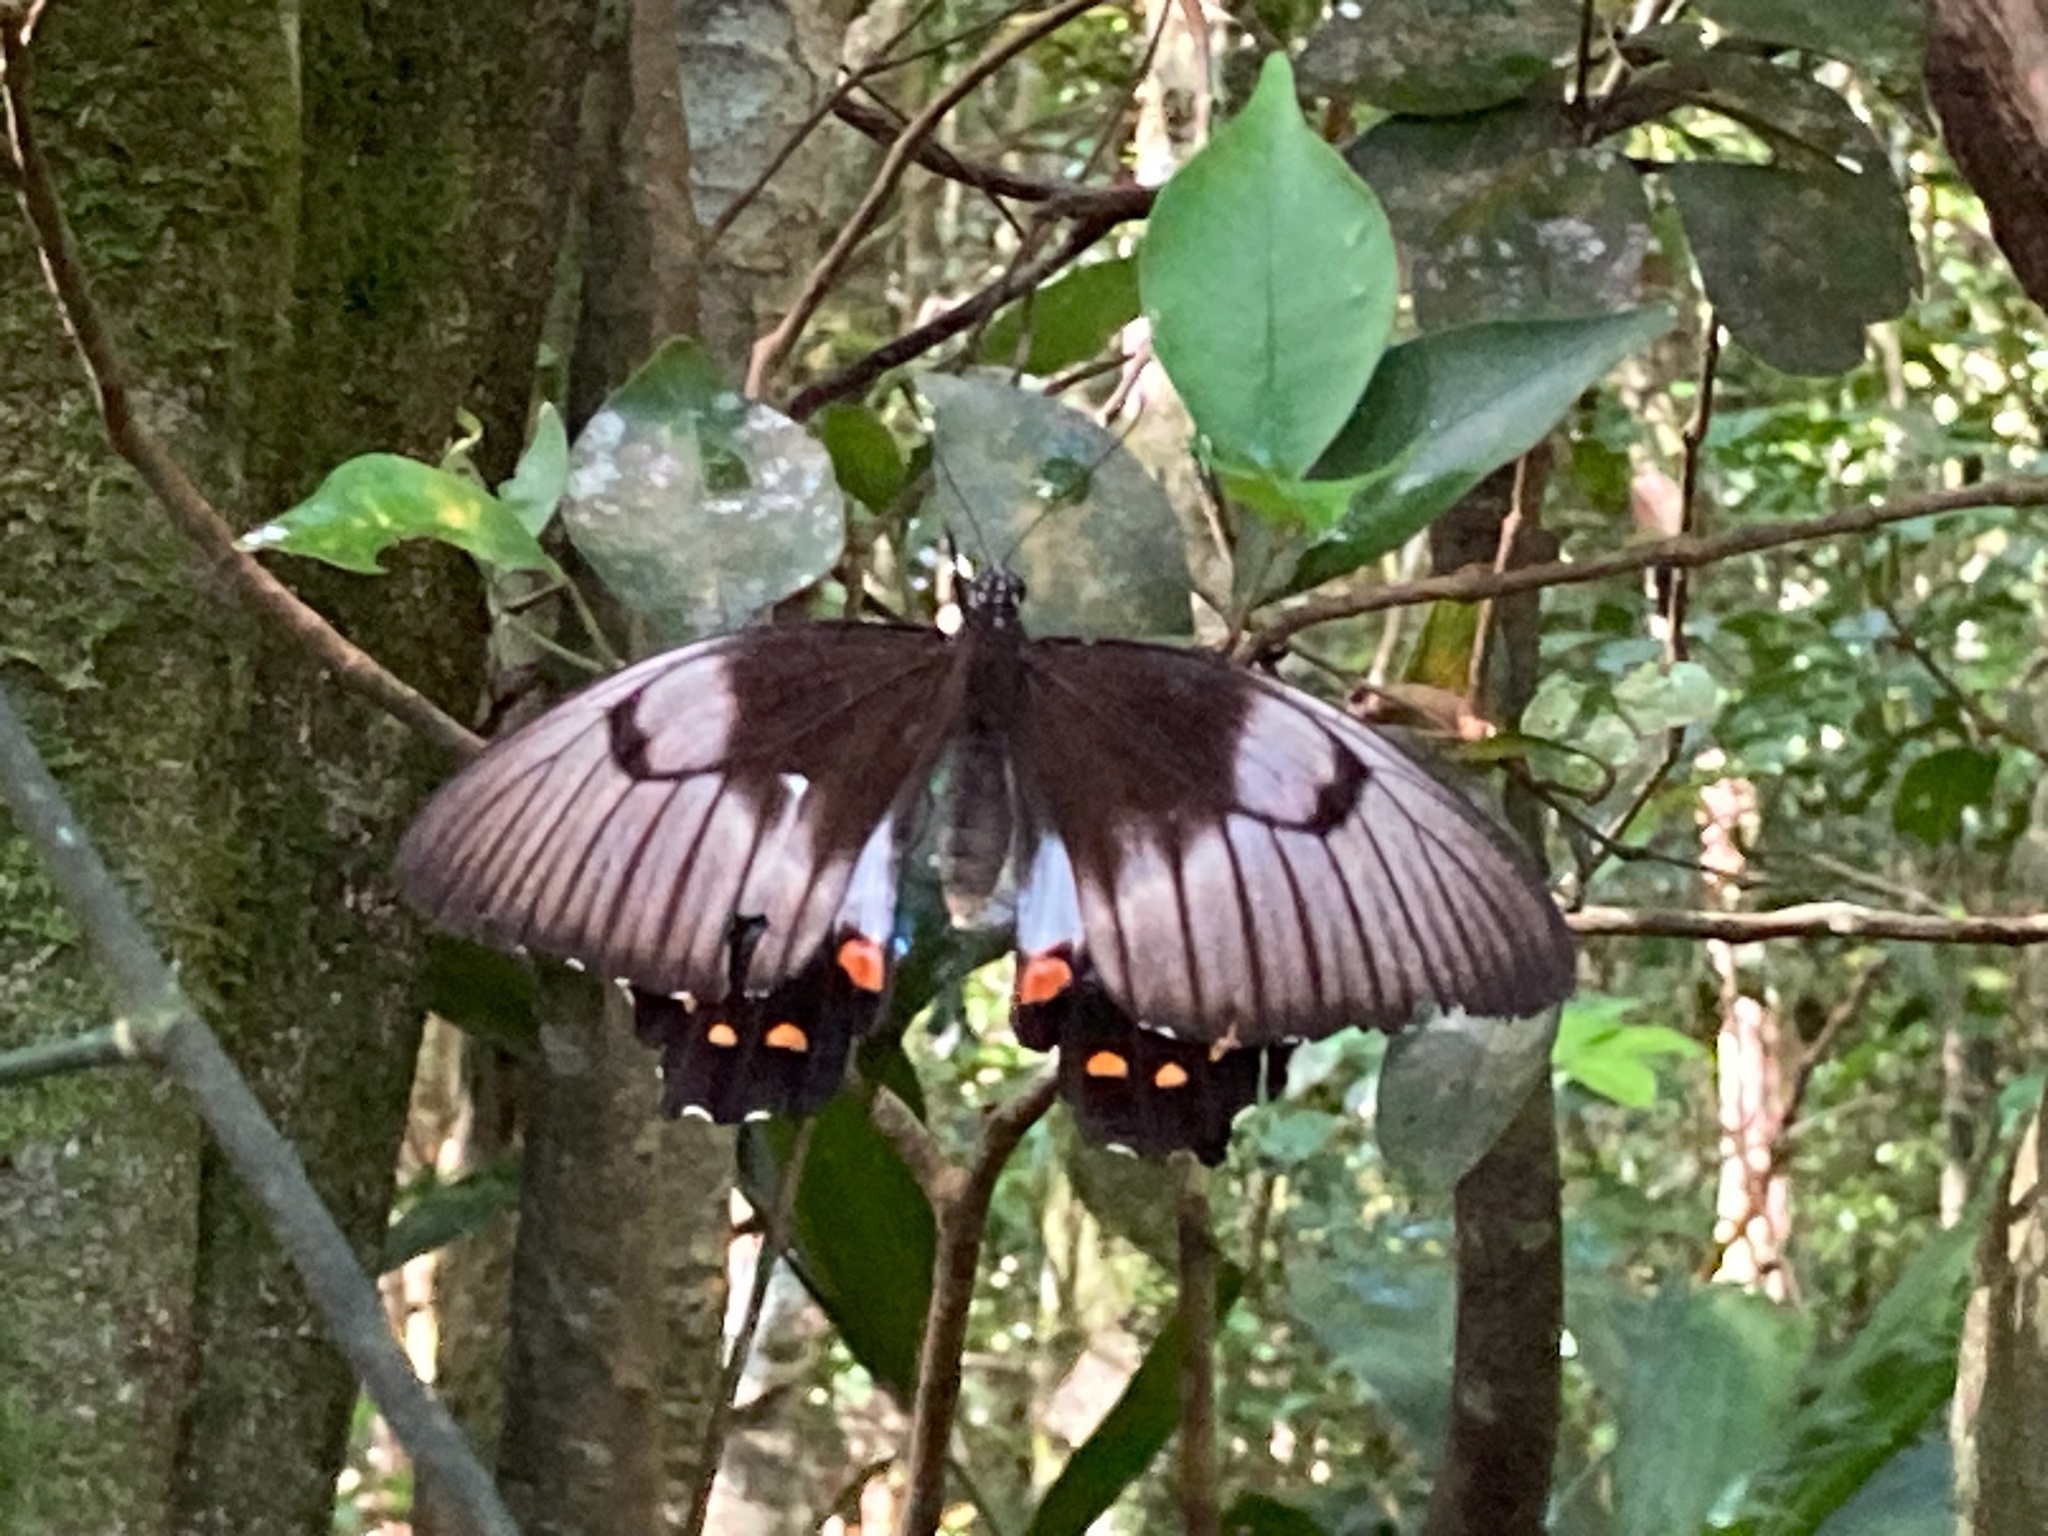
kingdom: Animalia
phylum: Arthropoda
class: Insecta
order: Lepidoptera
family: Papilionidae
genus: Papilio
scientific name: Papilio aegeus
